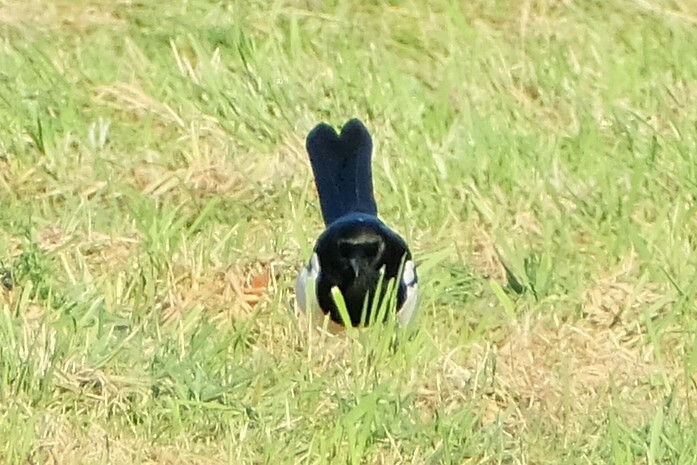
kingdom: Animalia
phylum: Chordata
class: Aves
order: Passeriformes
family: Corvidae
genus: Pica
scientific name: Pica pica
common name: Eurasian magpie
